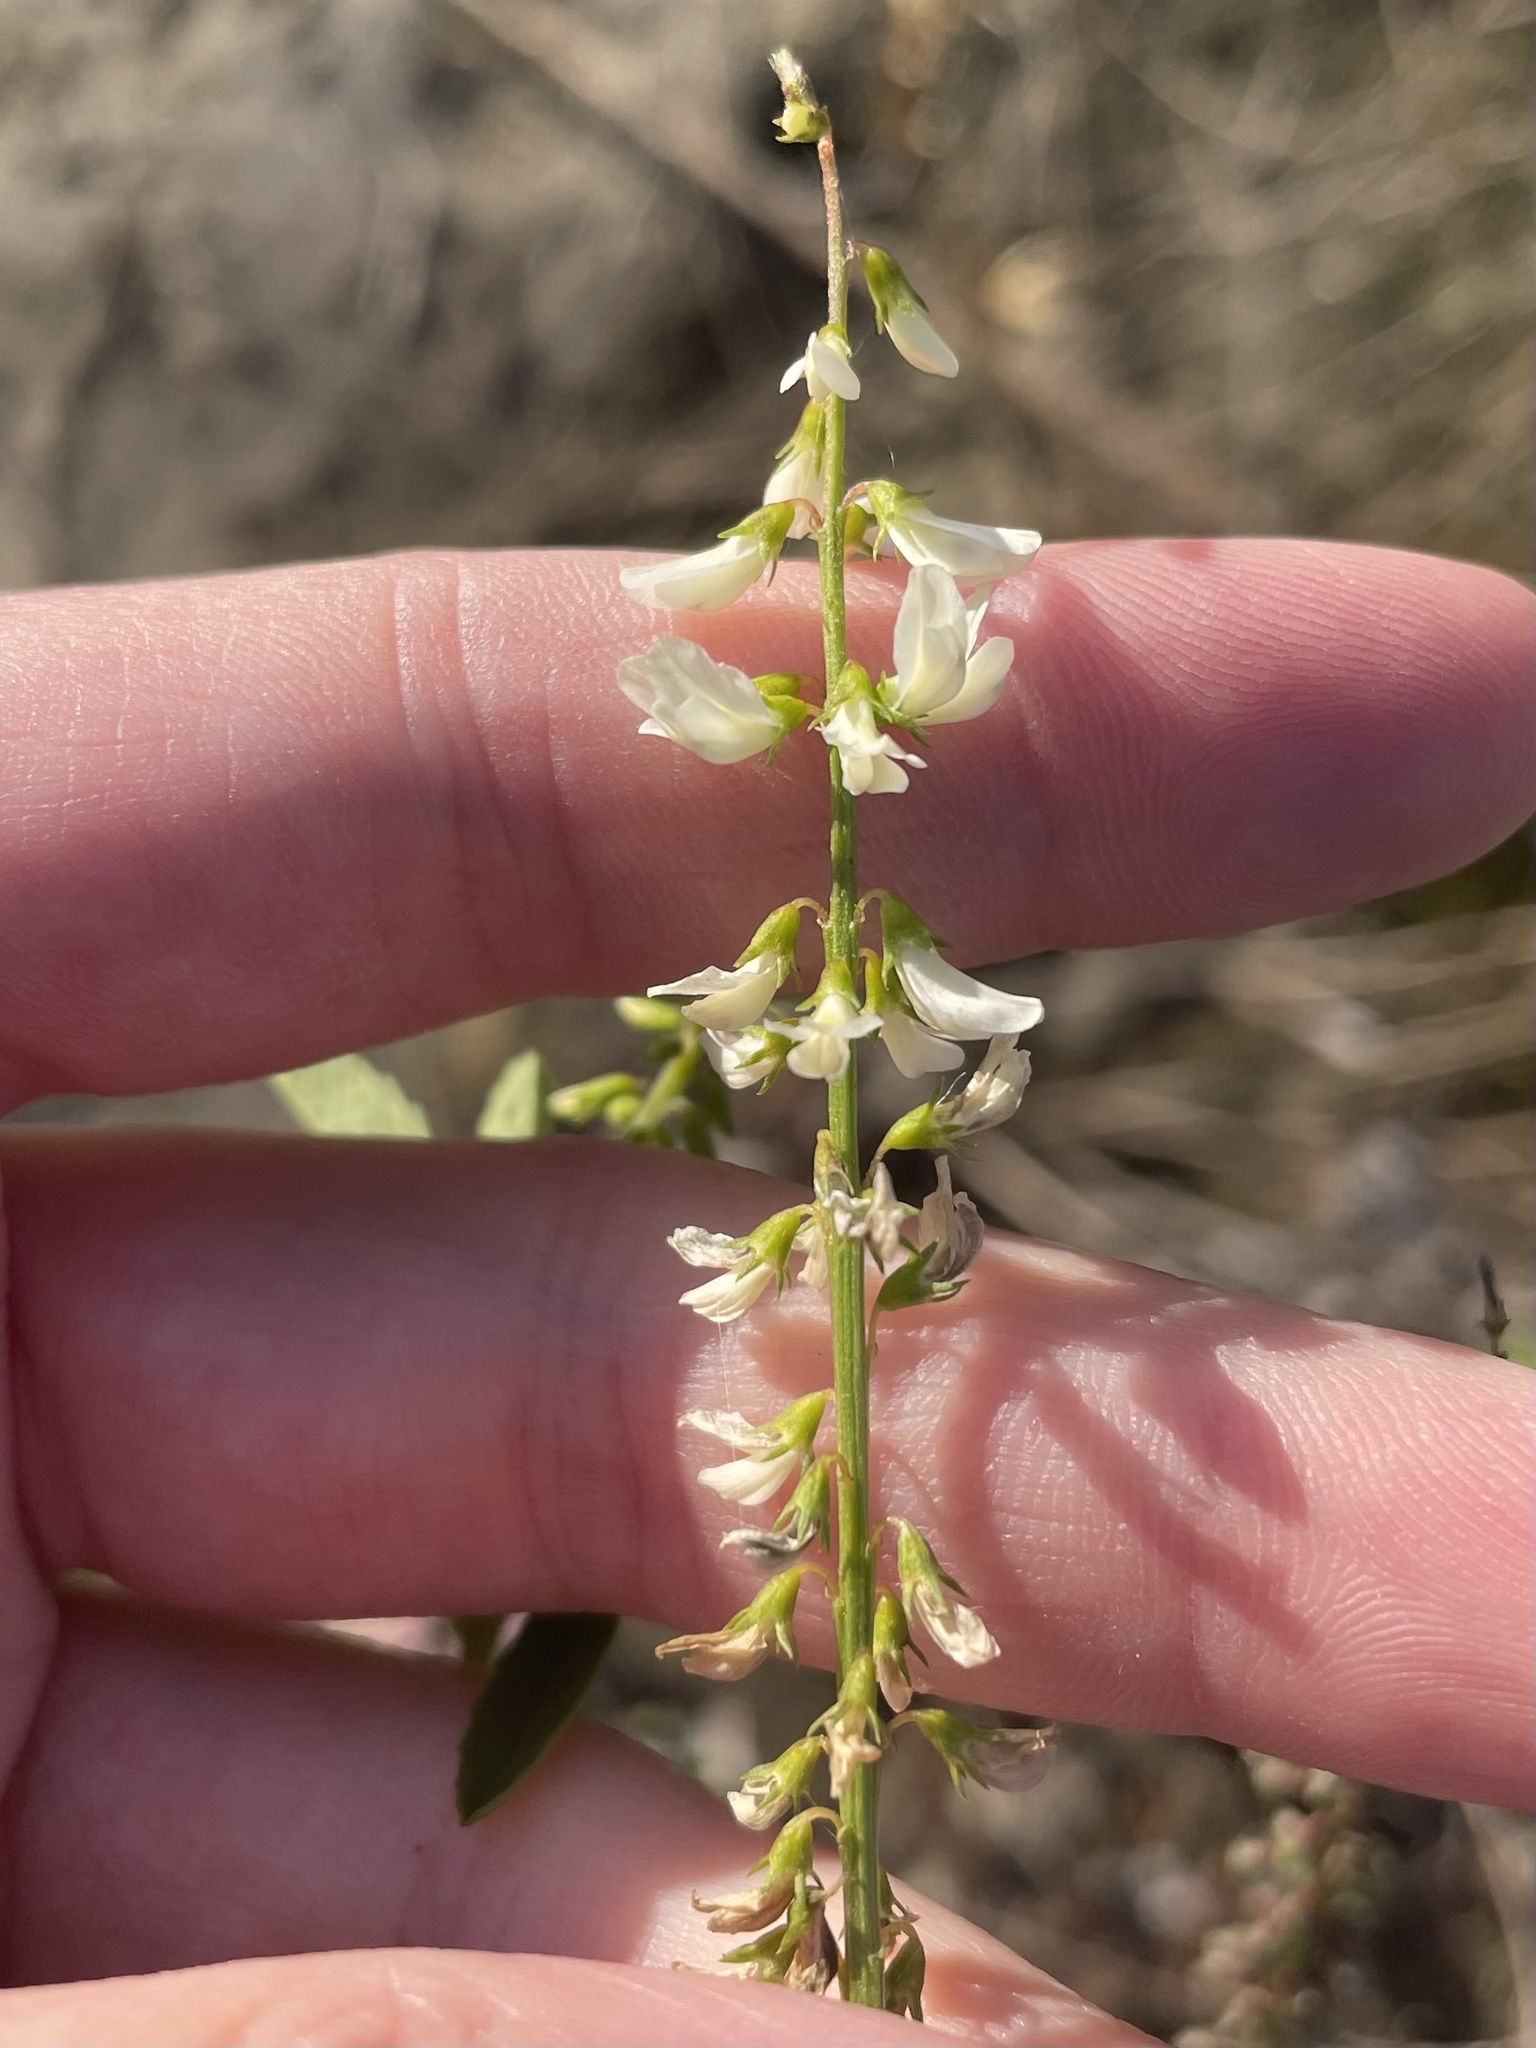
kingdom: Plantae
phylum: Tracheophyta
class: Magnoliopsida
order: Fabales
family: Fabaceae
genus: Melilotus
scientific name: Melilotus albus
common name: White melilot
